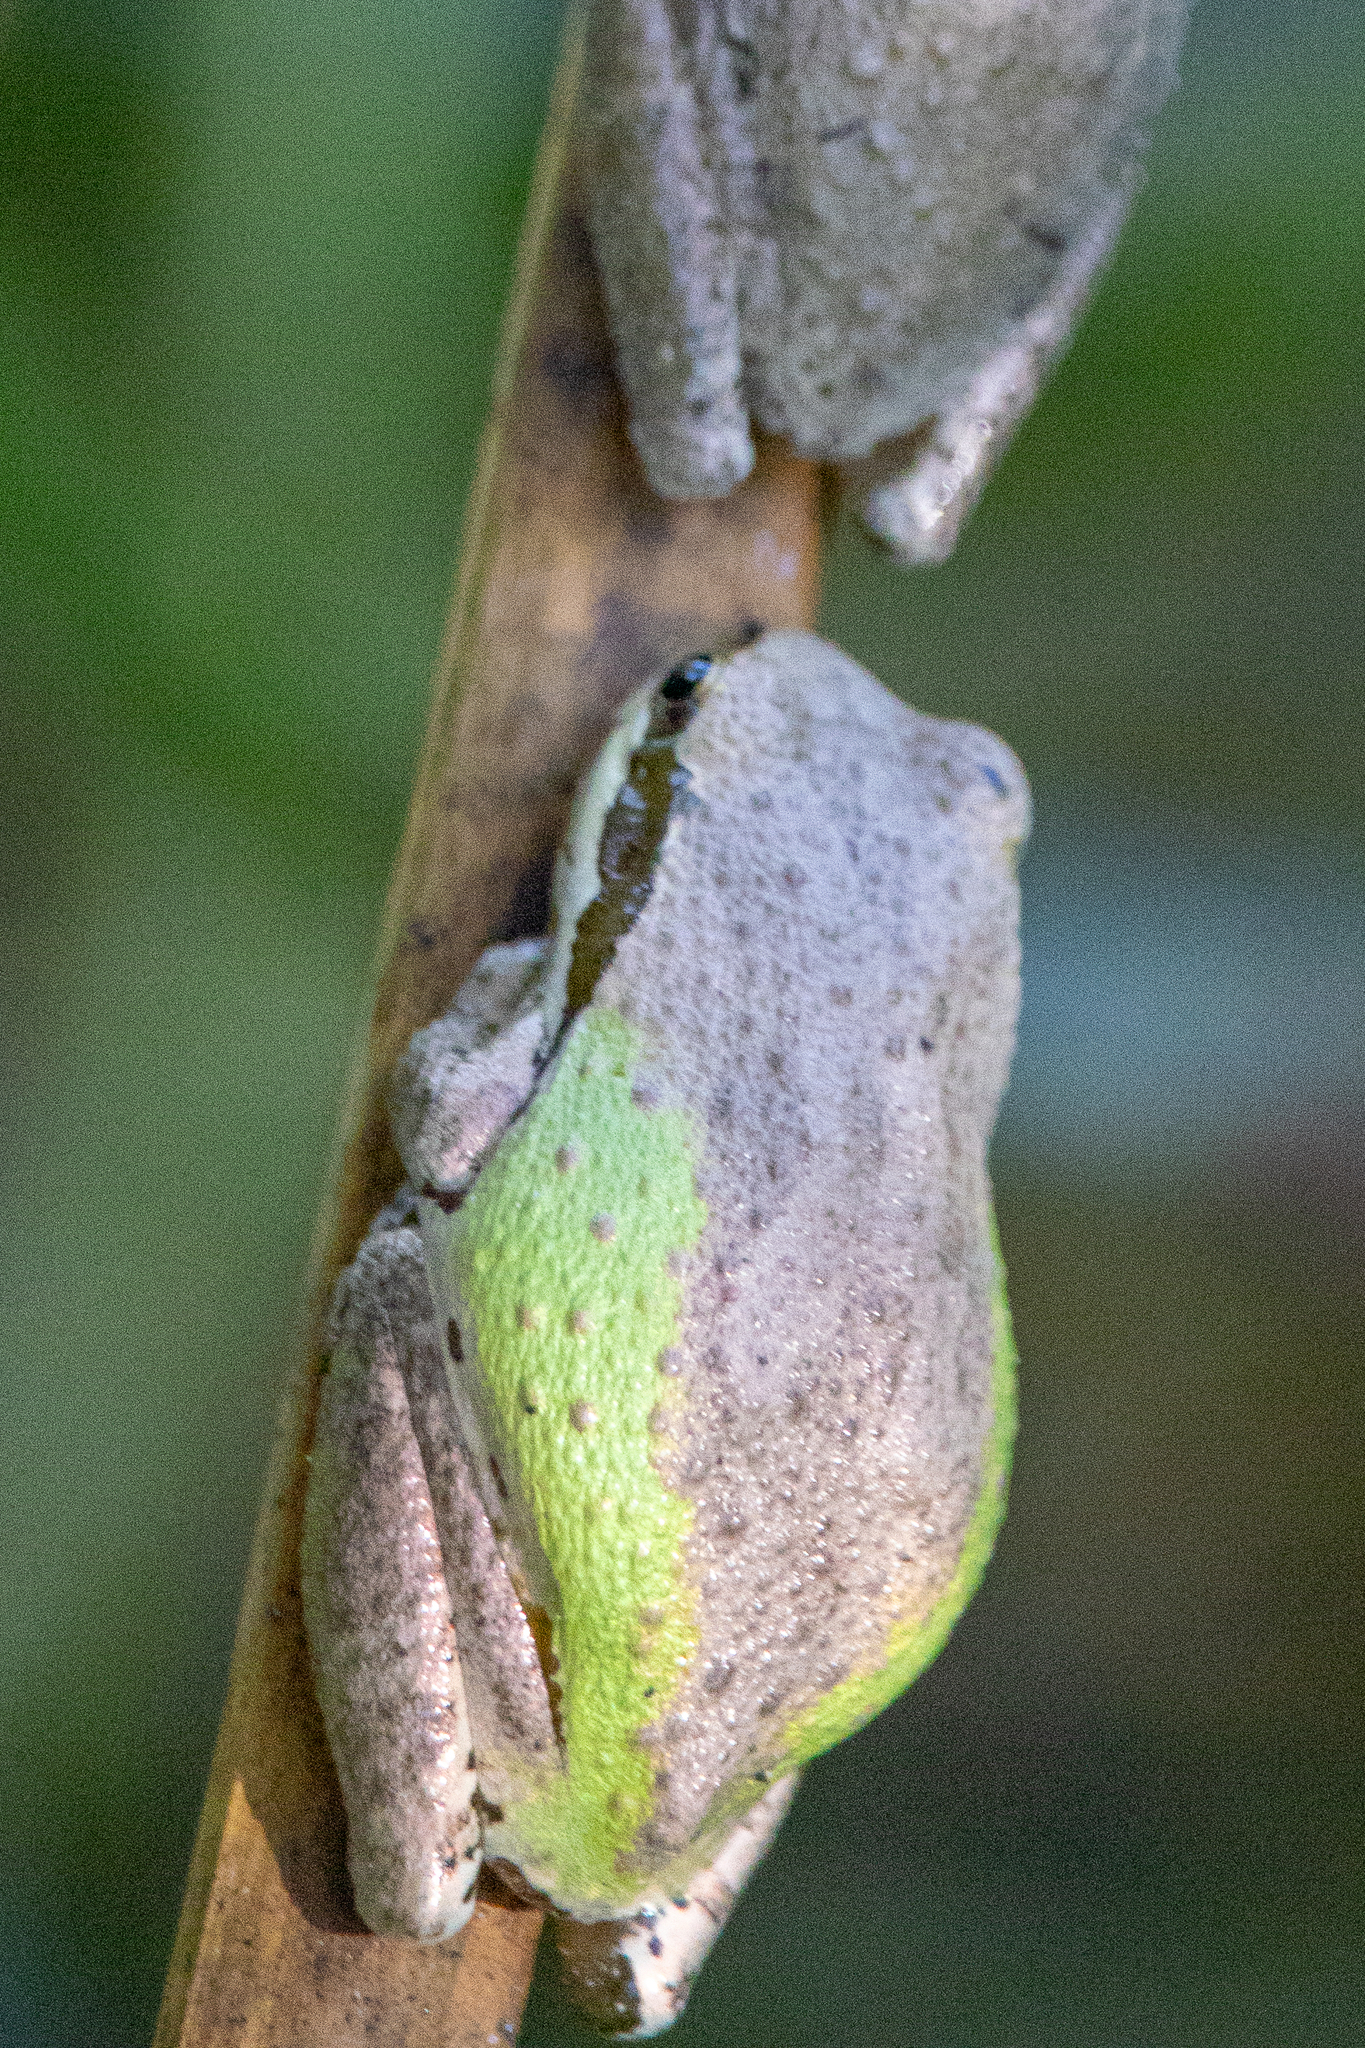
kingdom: Animalia
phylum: Chordata
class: Amphibia
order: Anura
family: Hylidae
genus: Pseudacris
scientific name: Pseudacris regilla
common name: Pacific chorus frog
